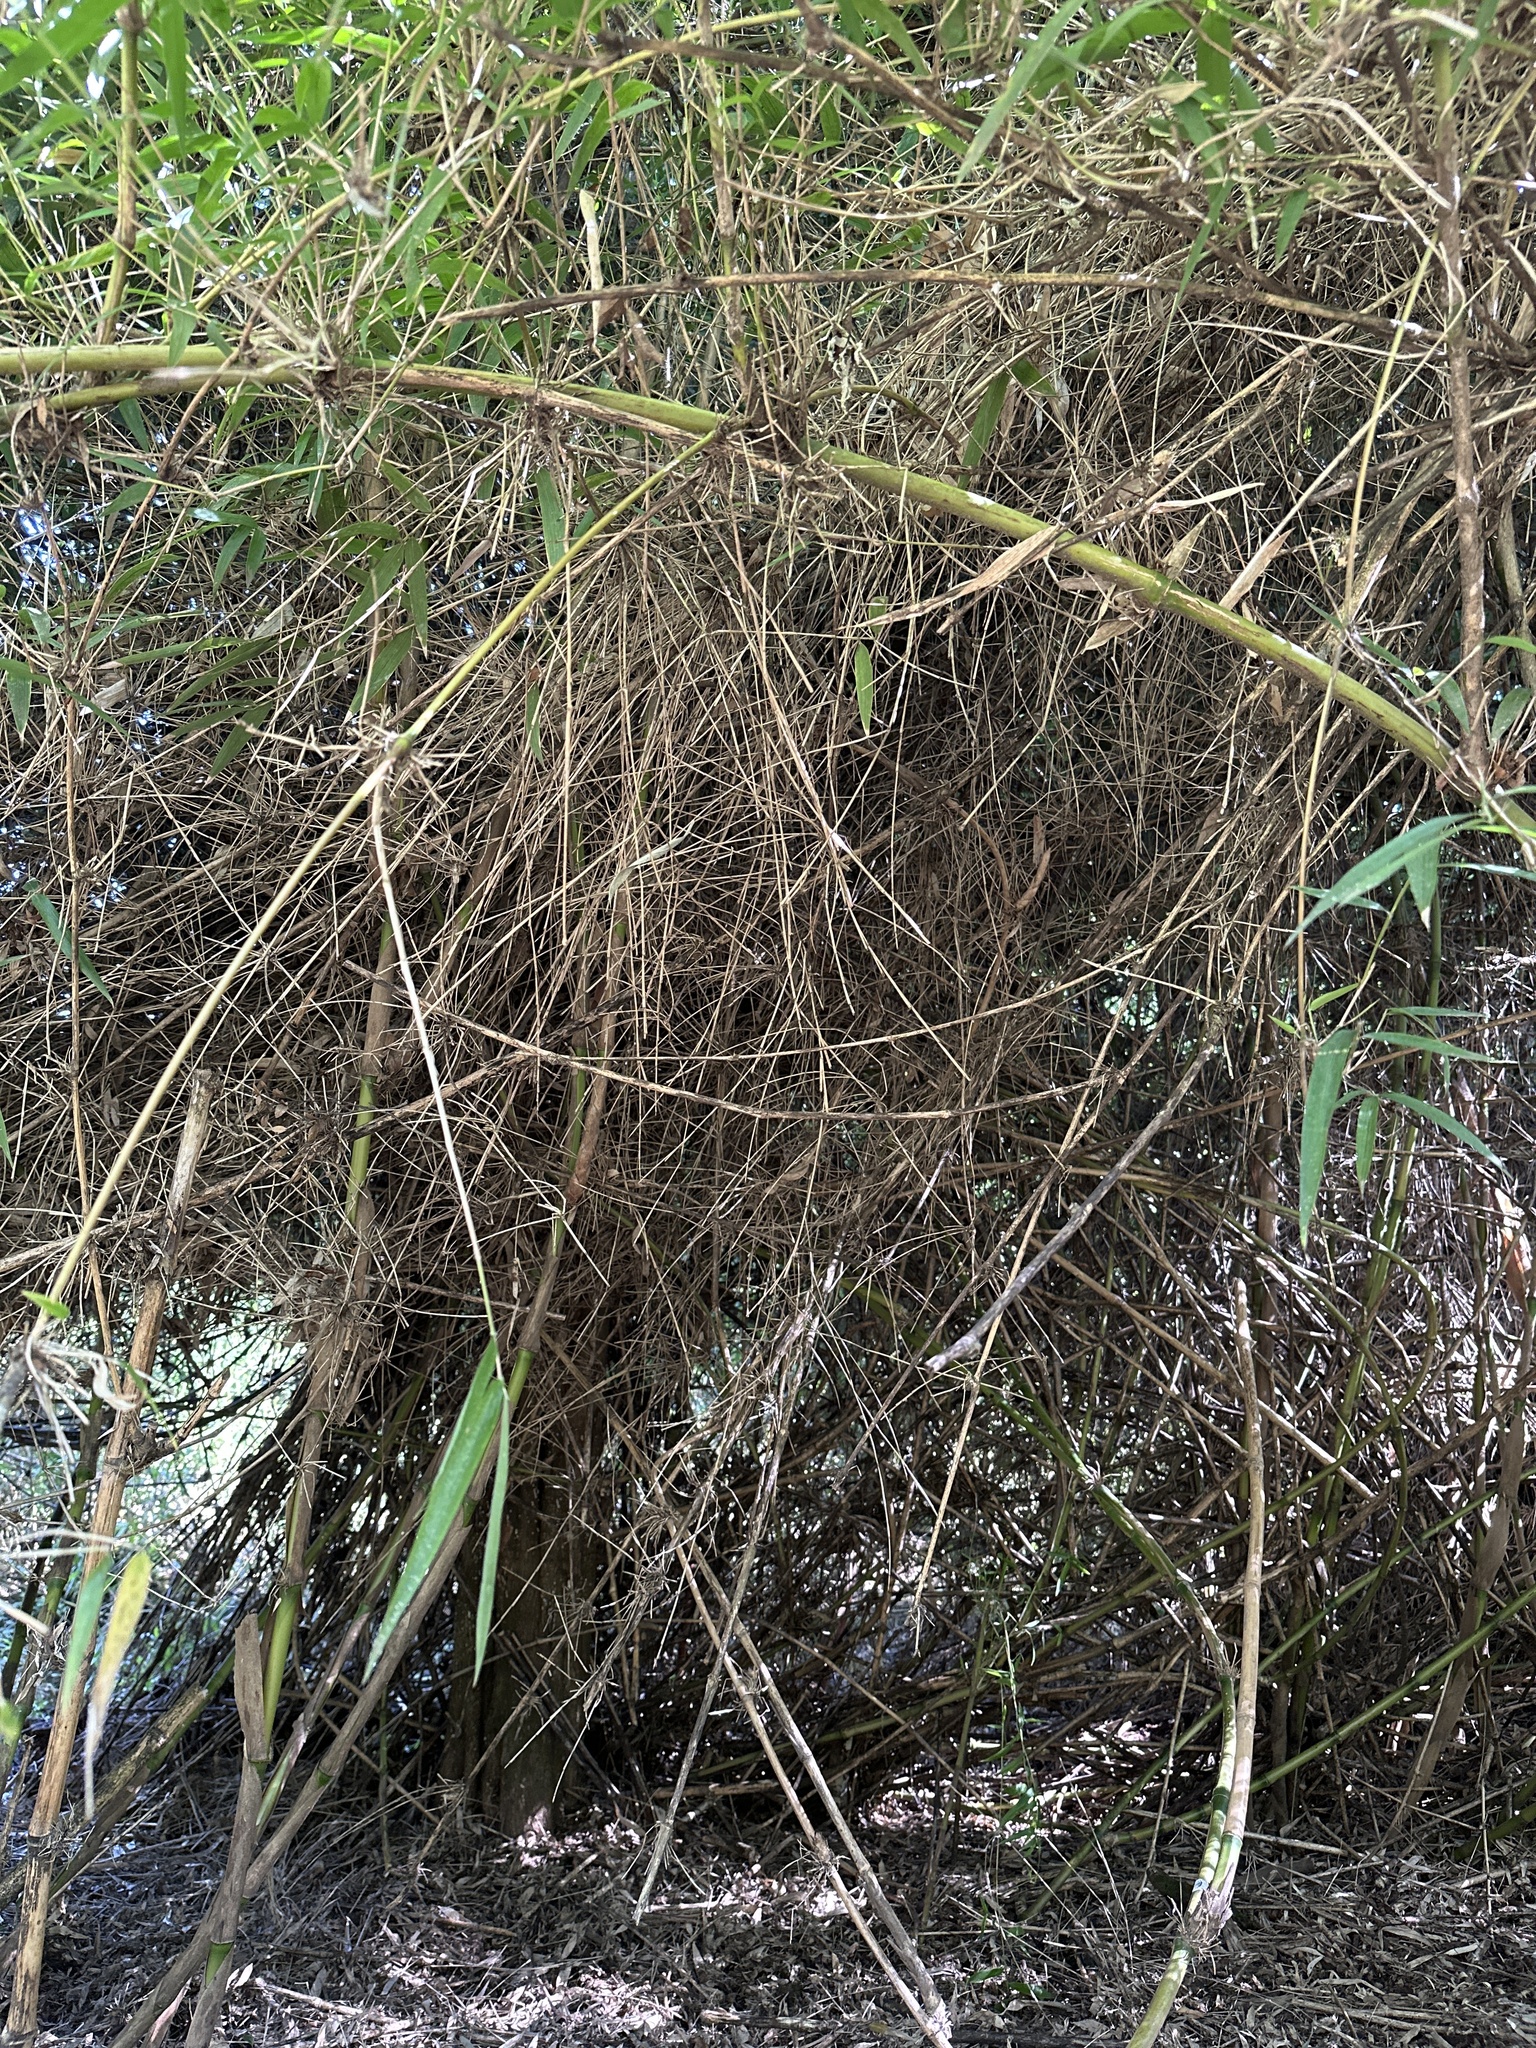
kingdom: Animalia
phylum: Chordata
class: Aves
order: Passeriformes
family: Furnariidae
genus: Sylviorthorhynchus
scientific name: Sylviorthorhynchus desmursii
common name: Des murs's wiretail
